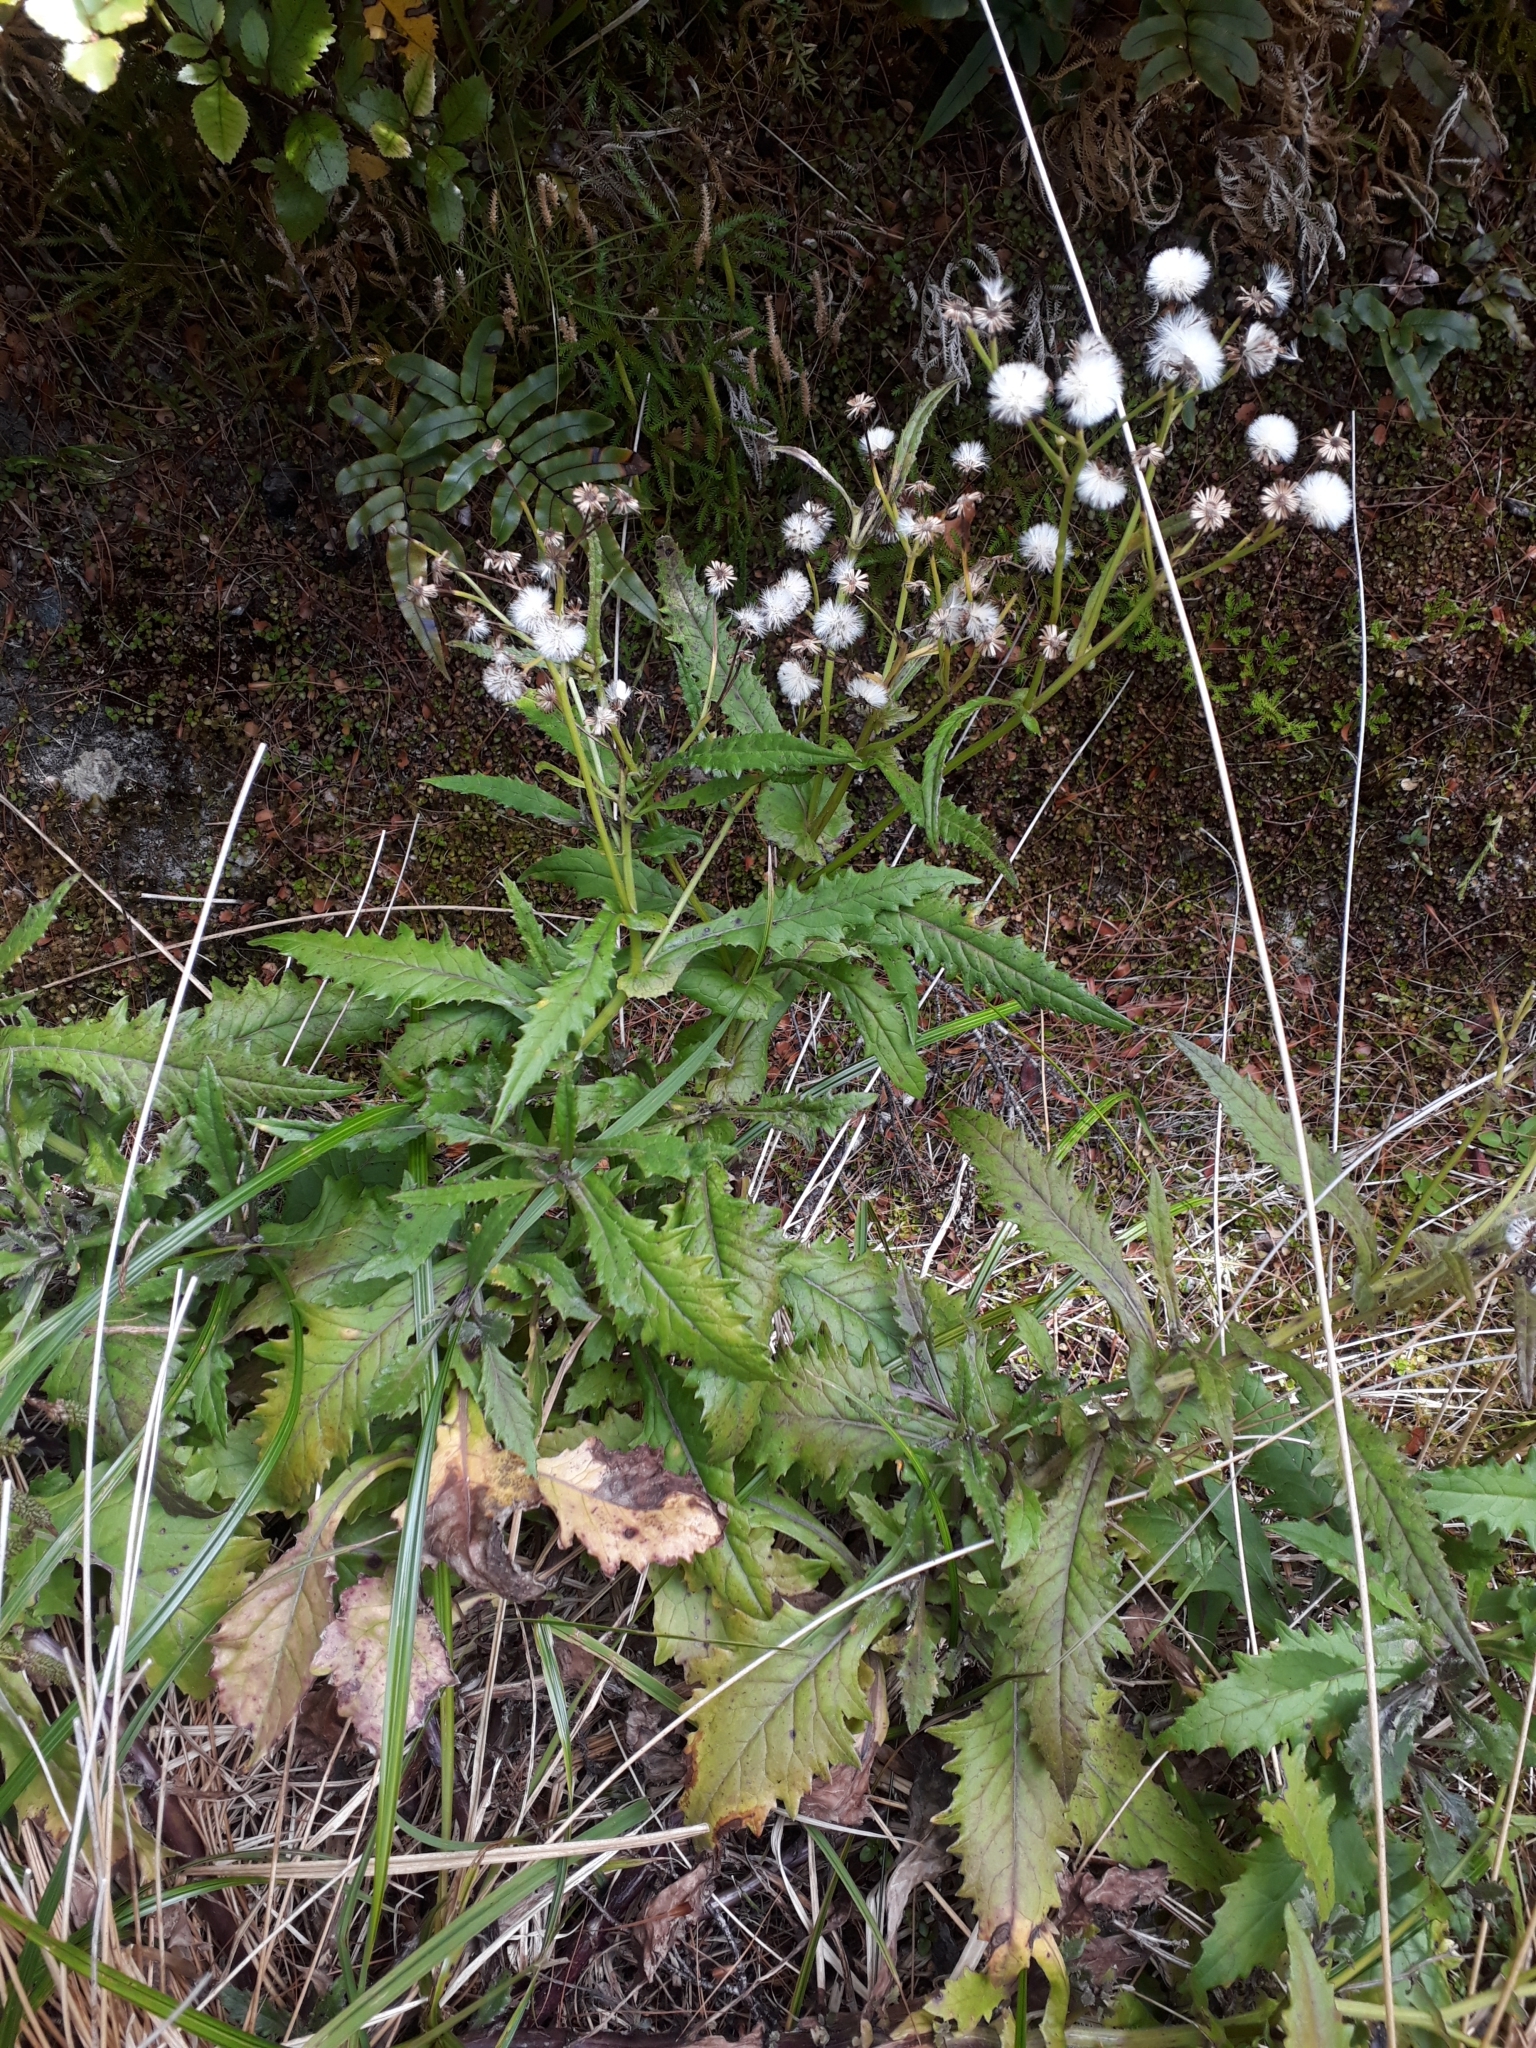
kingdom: Plantae
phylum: Tracheophyta
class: Magnoliopsida
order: Asterales
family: Asteraceae
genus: Senecio
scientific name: Senecio biserratus
